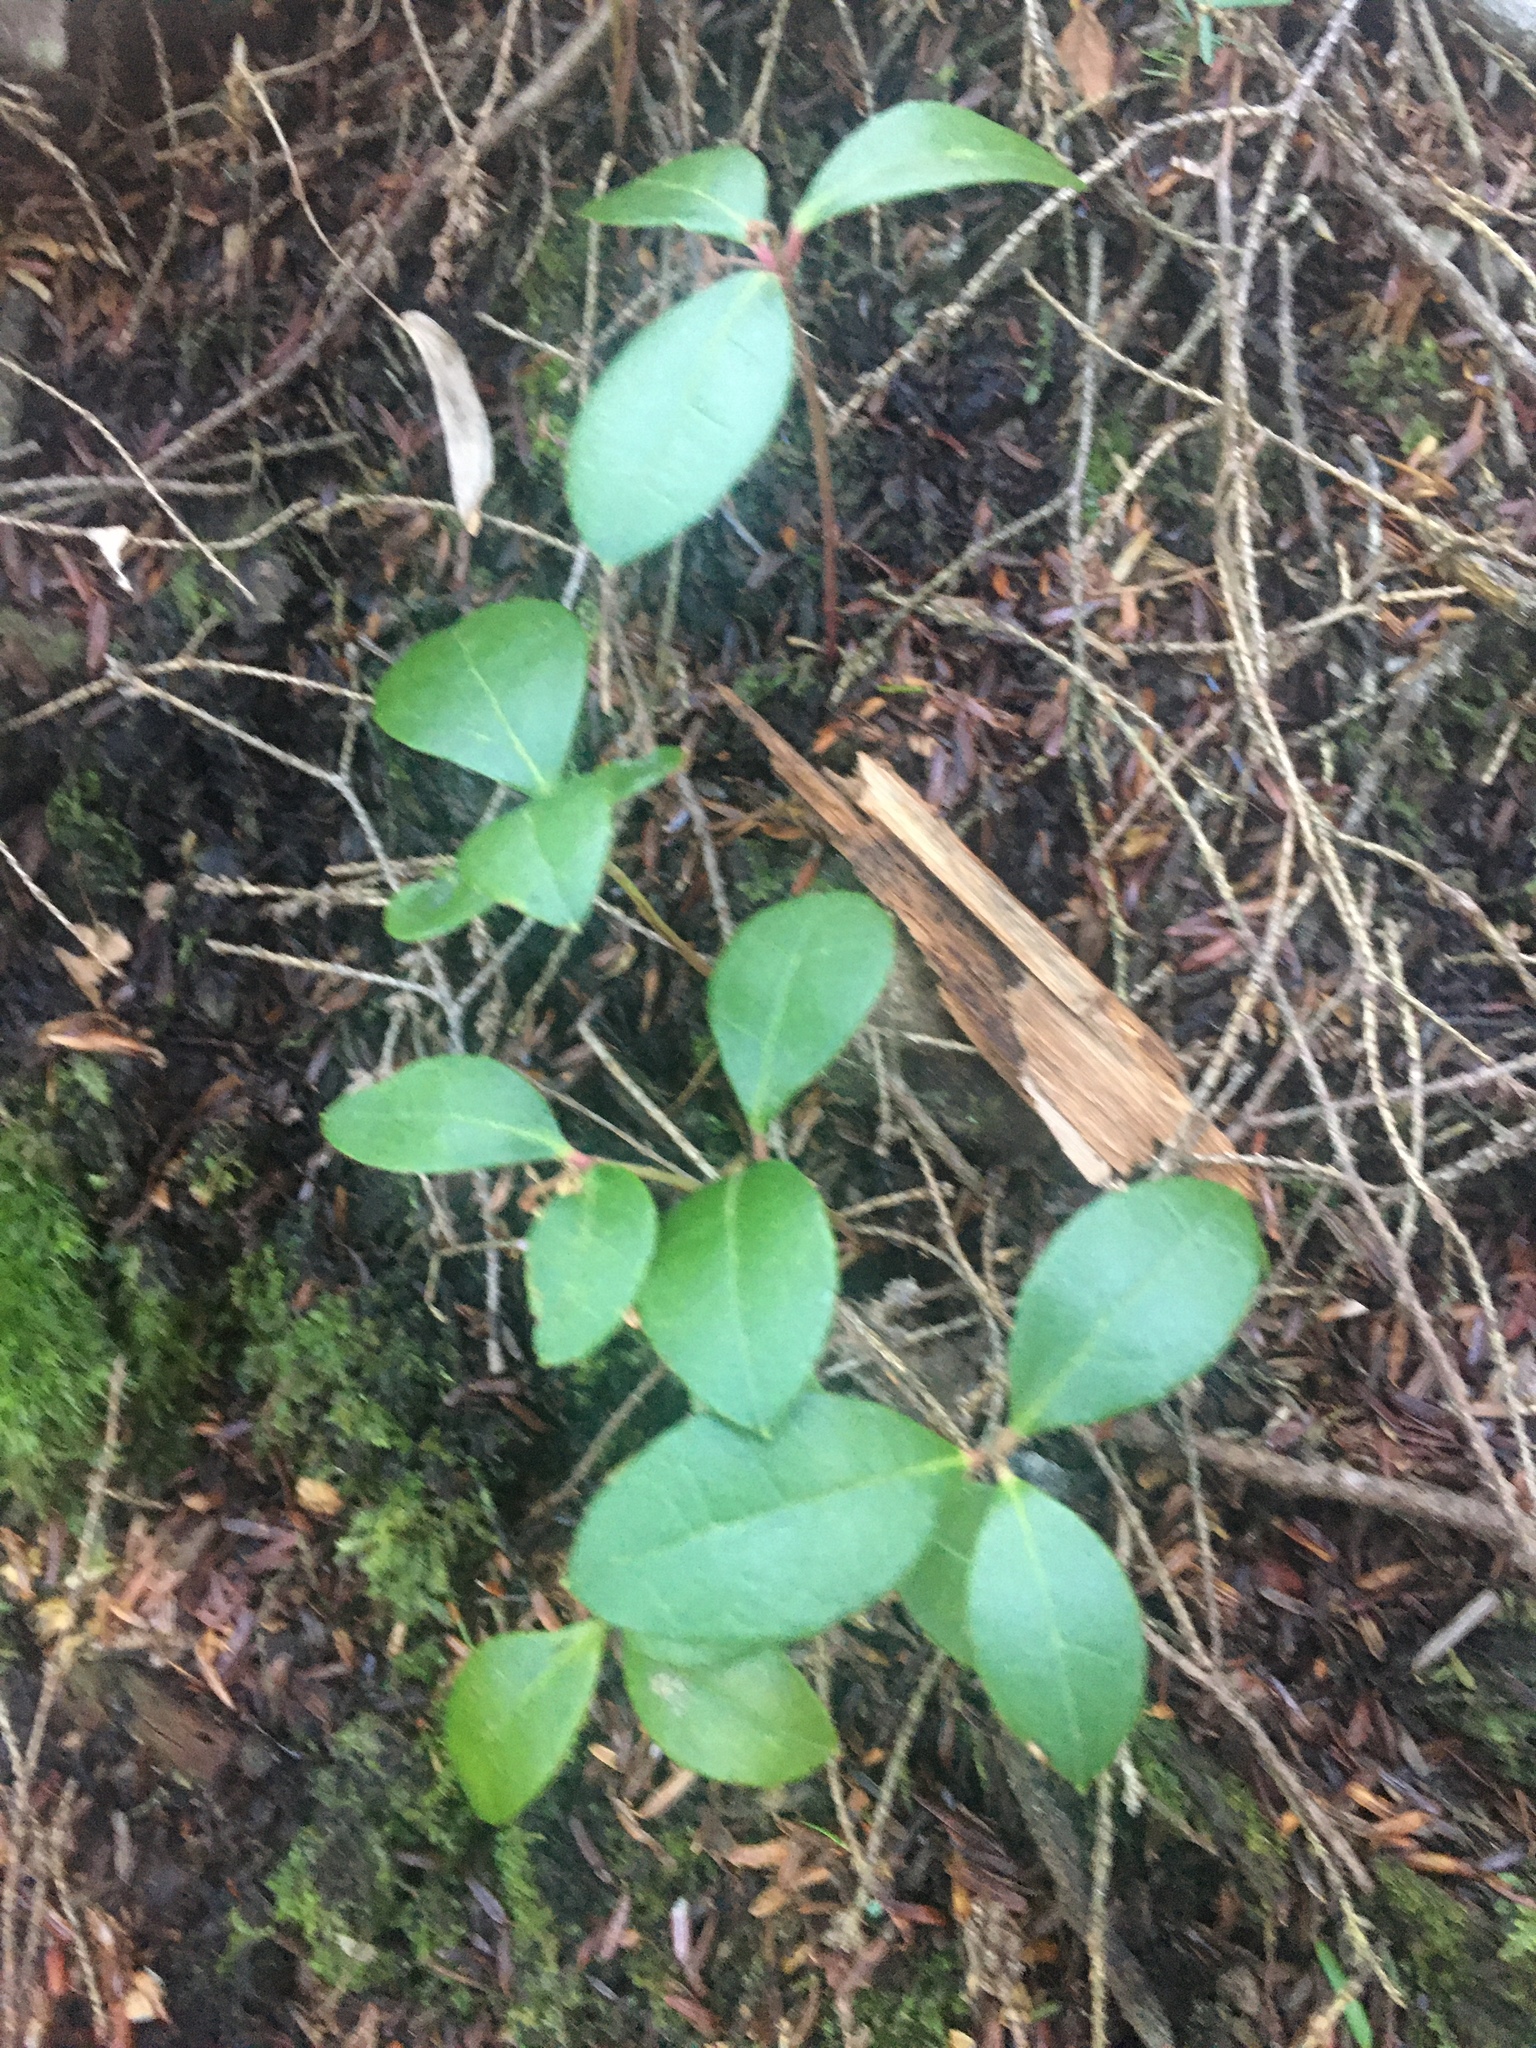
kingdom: Plantae
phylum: Tracheophyta
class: Magnoliopsida
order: Ericales
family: Ericaceae
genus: Gaultheria
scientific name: Gaultheria procumbens
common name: Checkerberry
